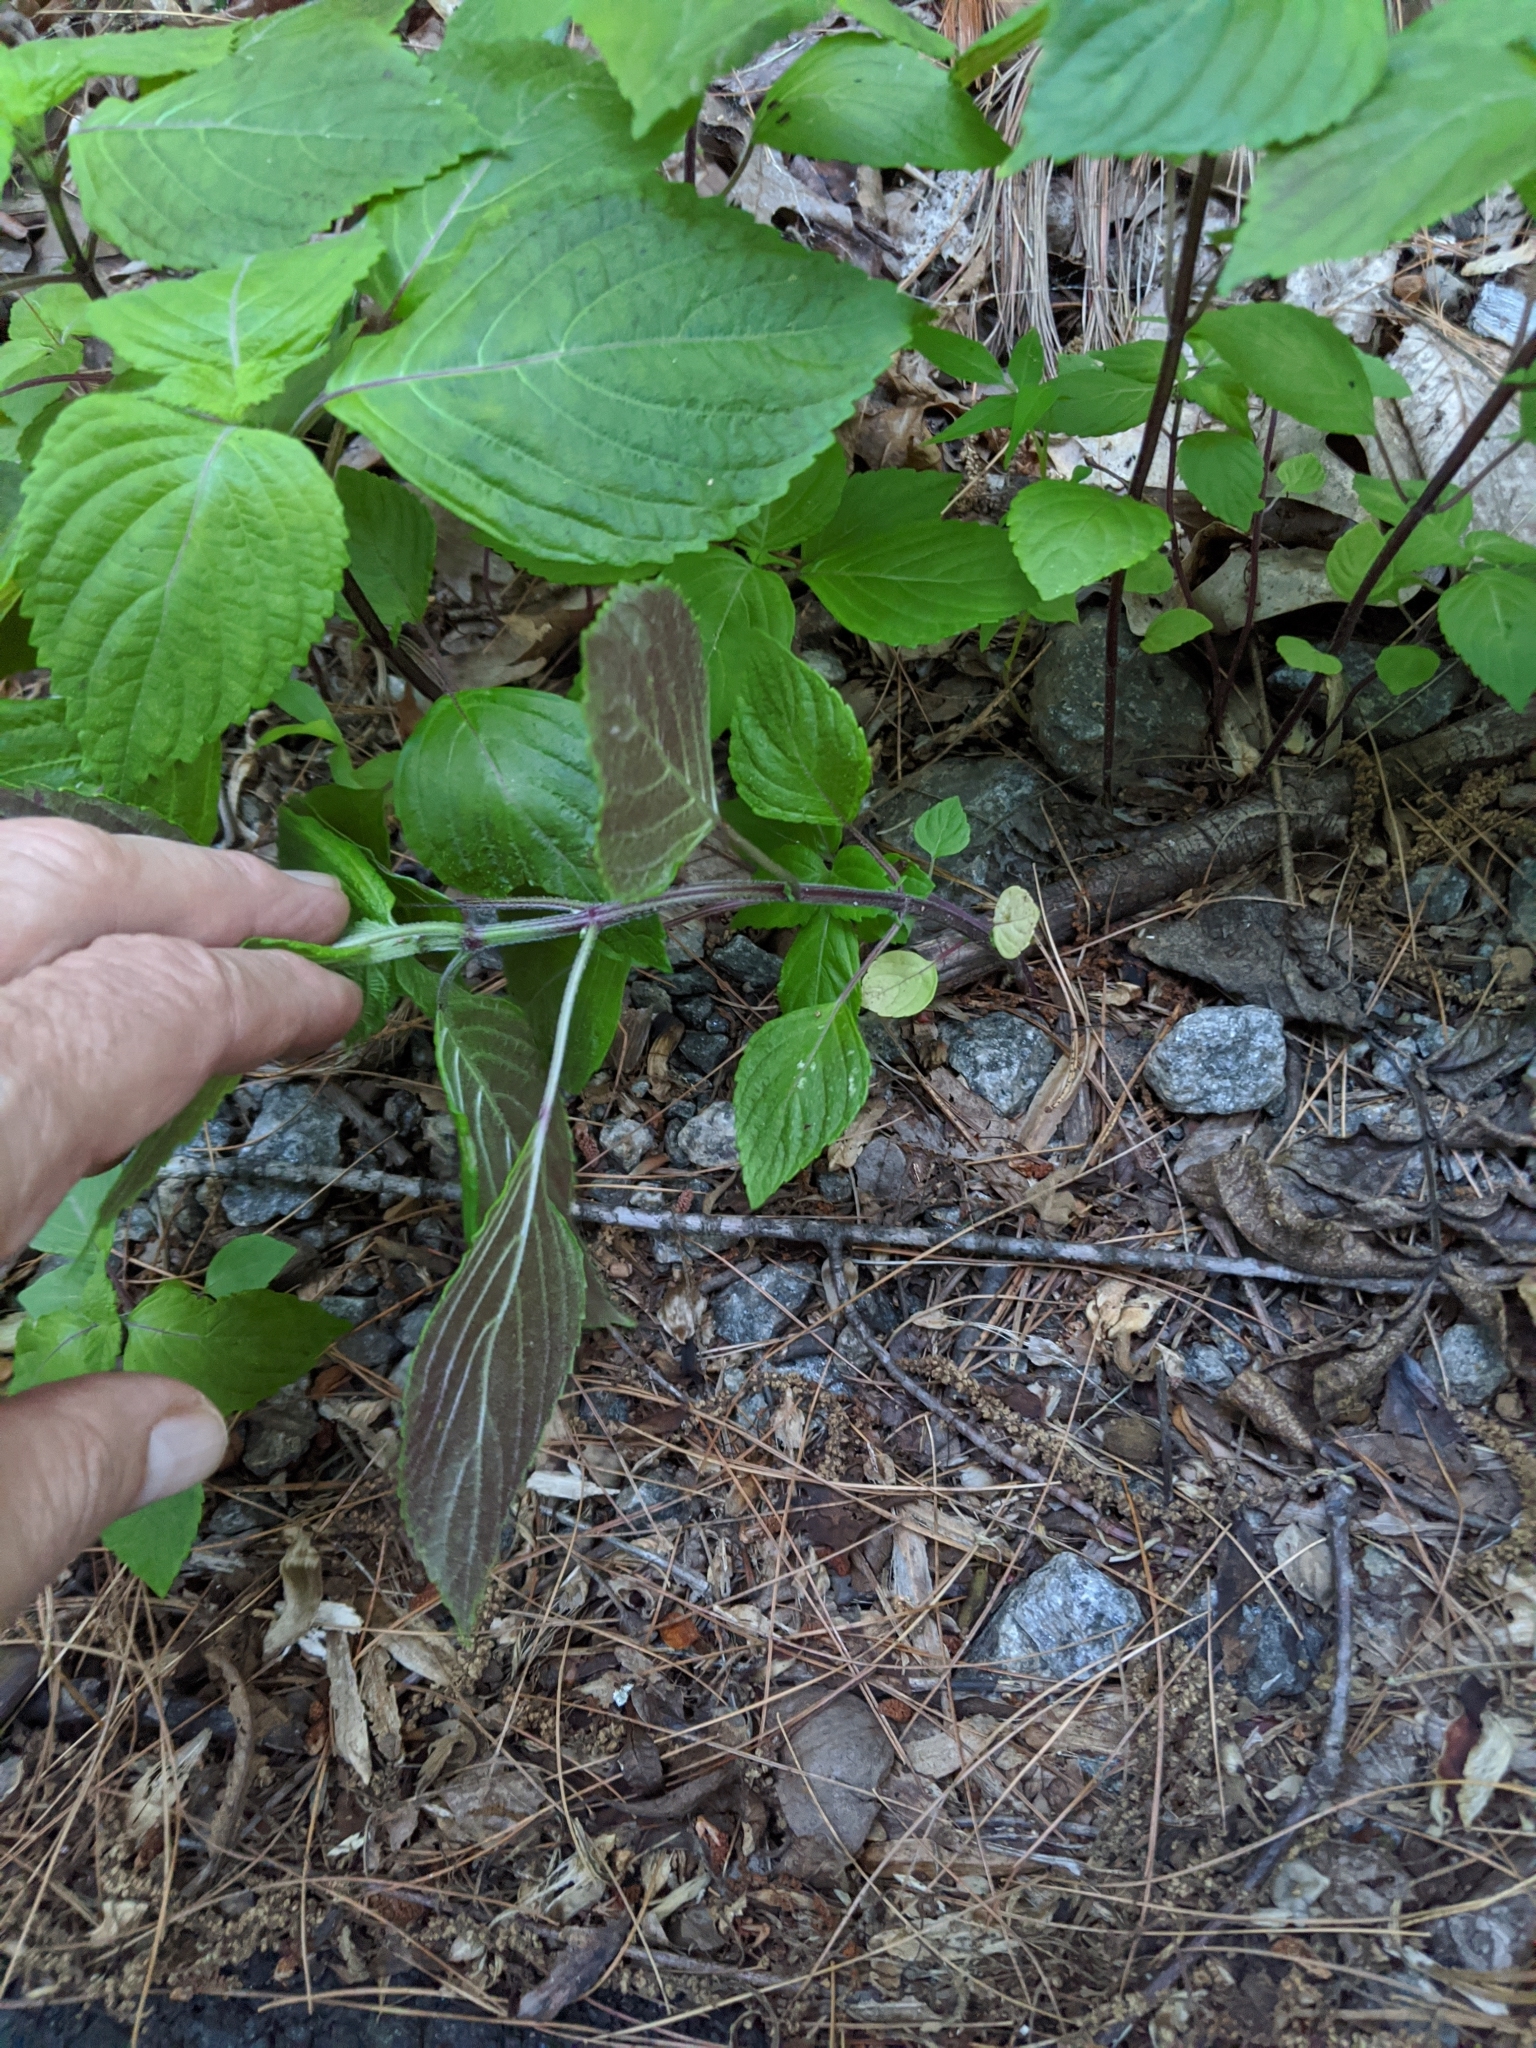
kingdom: Plantae
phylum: Tracheophyta
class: Magnoliopsida
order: Lamiales
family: Lamiaceae
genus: Perilla
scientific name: Perilla frutescens
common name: Perilla
